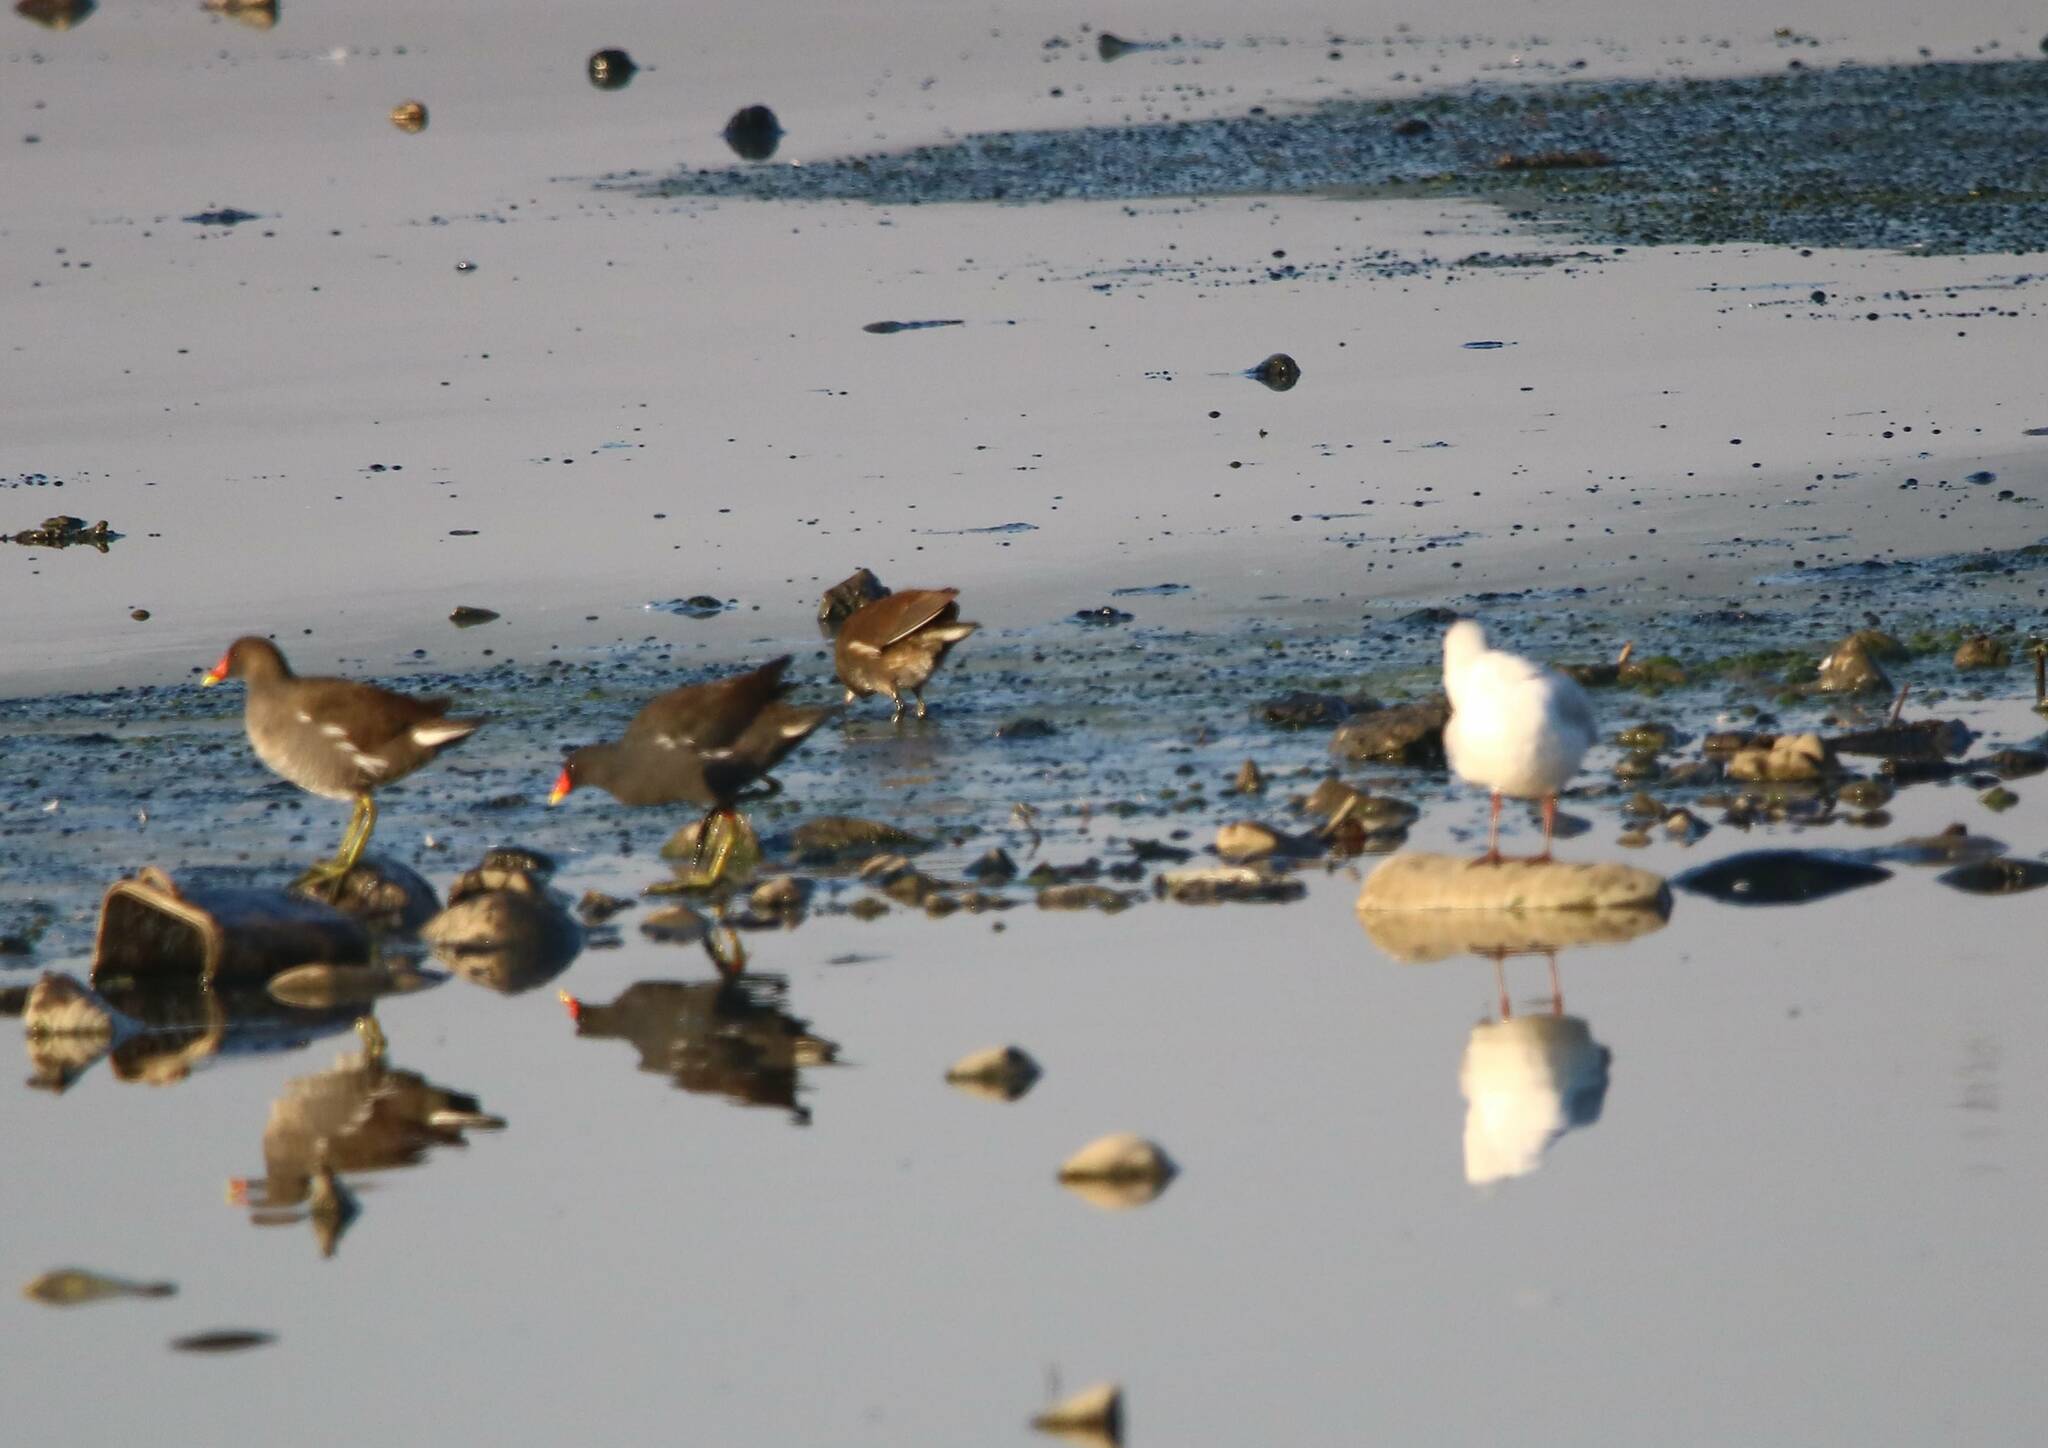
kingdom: Animalia
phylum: Chordata
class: Aves
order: Gruiformes
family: Rallidae
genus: Gallinula
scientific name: Gallinula chloropus
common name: Common moorhen
